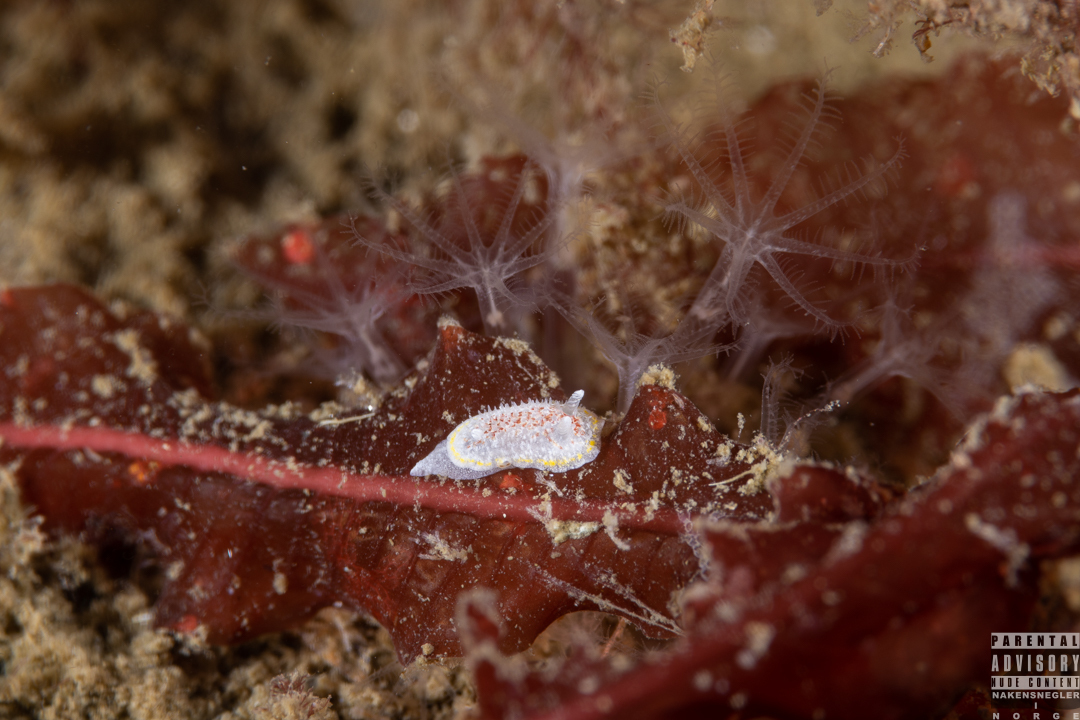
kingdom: Animalia
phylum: Mollusca
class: Gastropoda
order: Nudibranchia
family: Calycidorididae
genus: Diaphorodoris
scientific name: Diaphorodoris luteocincta
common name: Fried egg nudibranch
